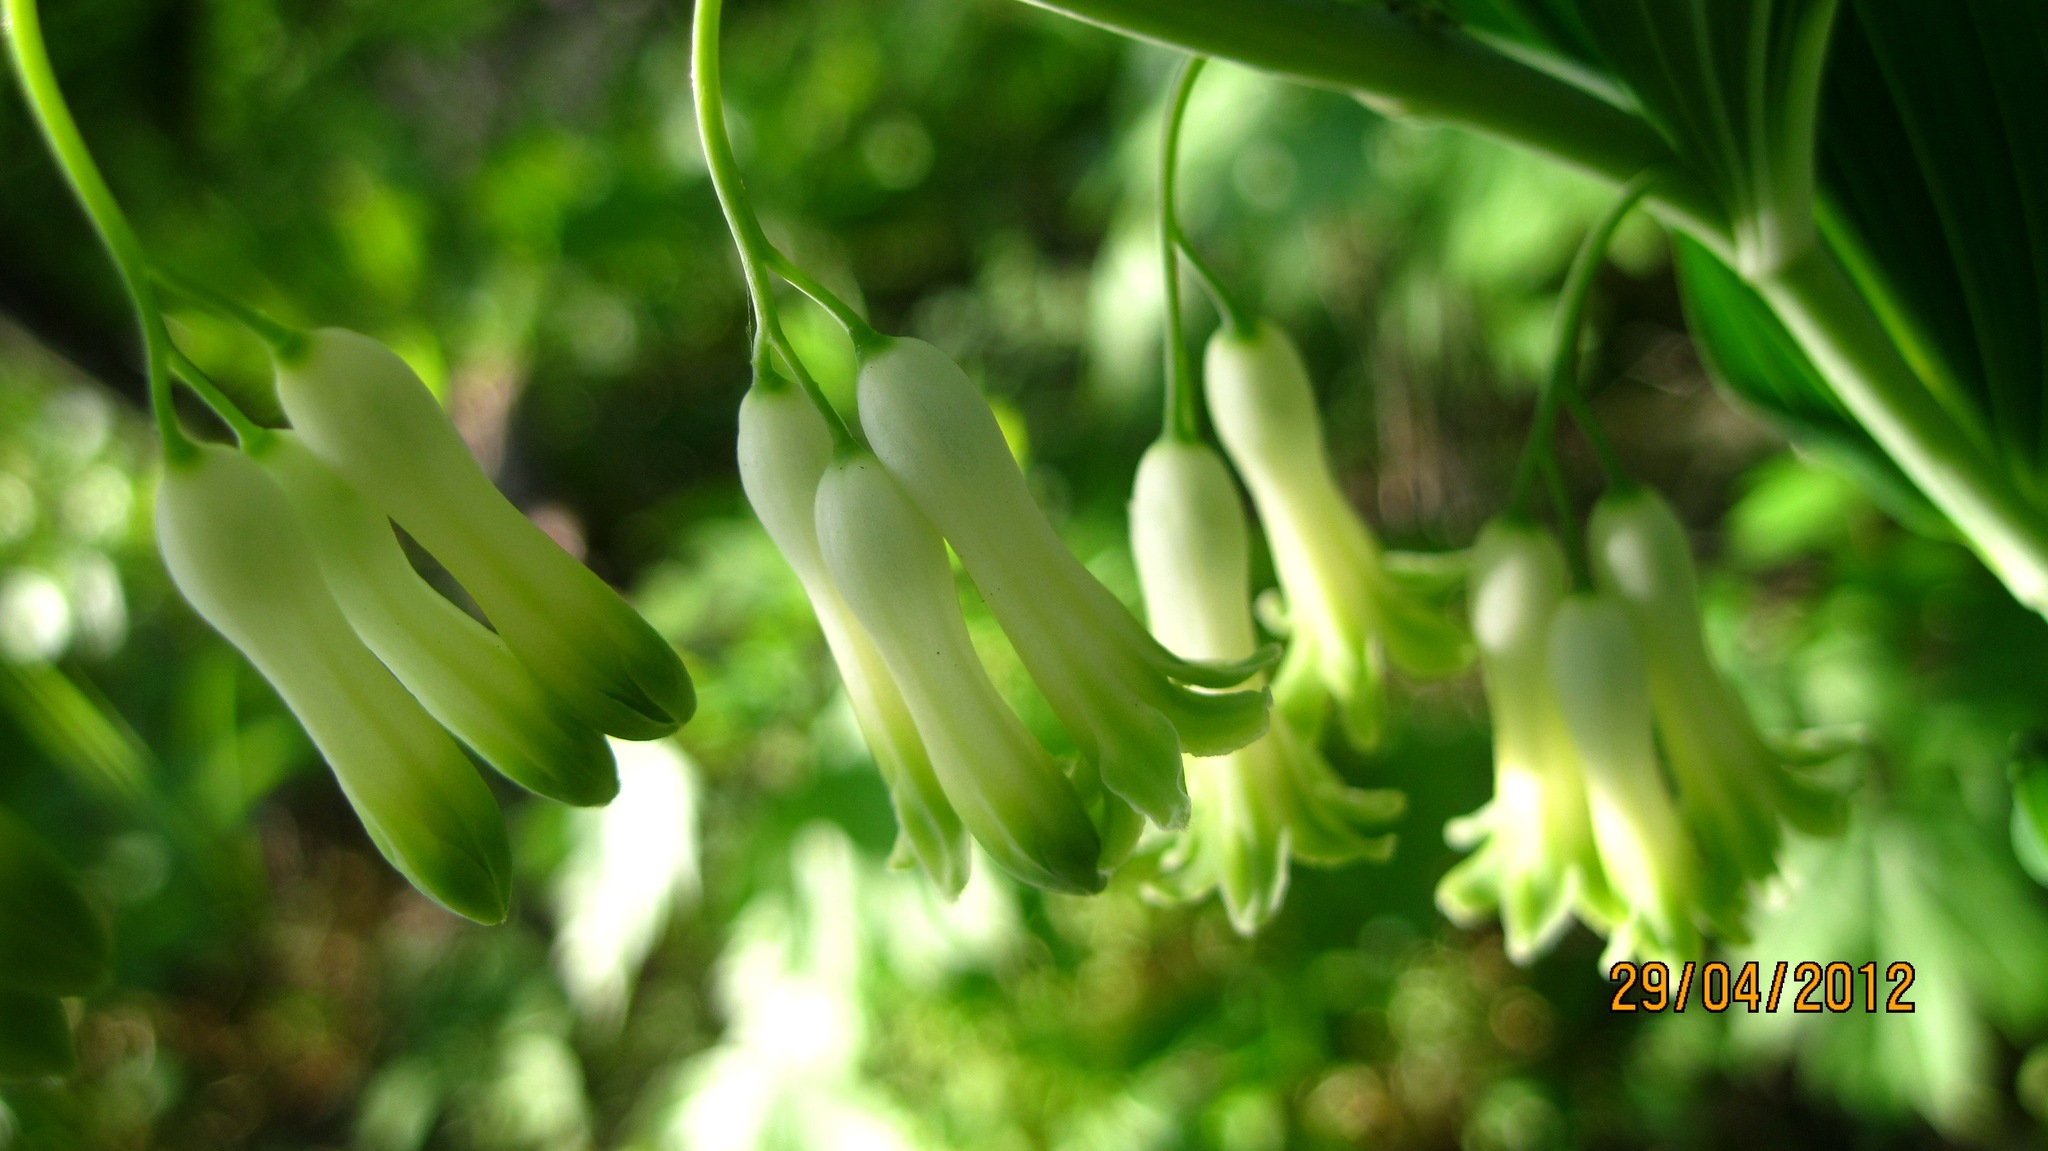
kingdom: Plantae
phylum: Tracheophyta
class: Liliopsida
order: Asparagales
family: Asparagaceae
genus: Polygonatum
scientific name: Polygonatum multiflorum
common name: Solomon's-seal
